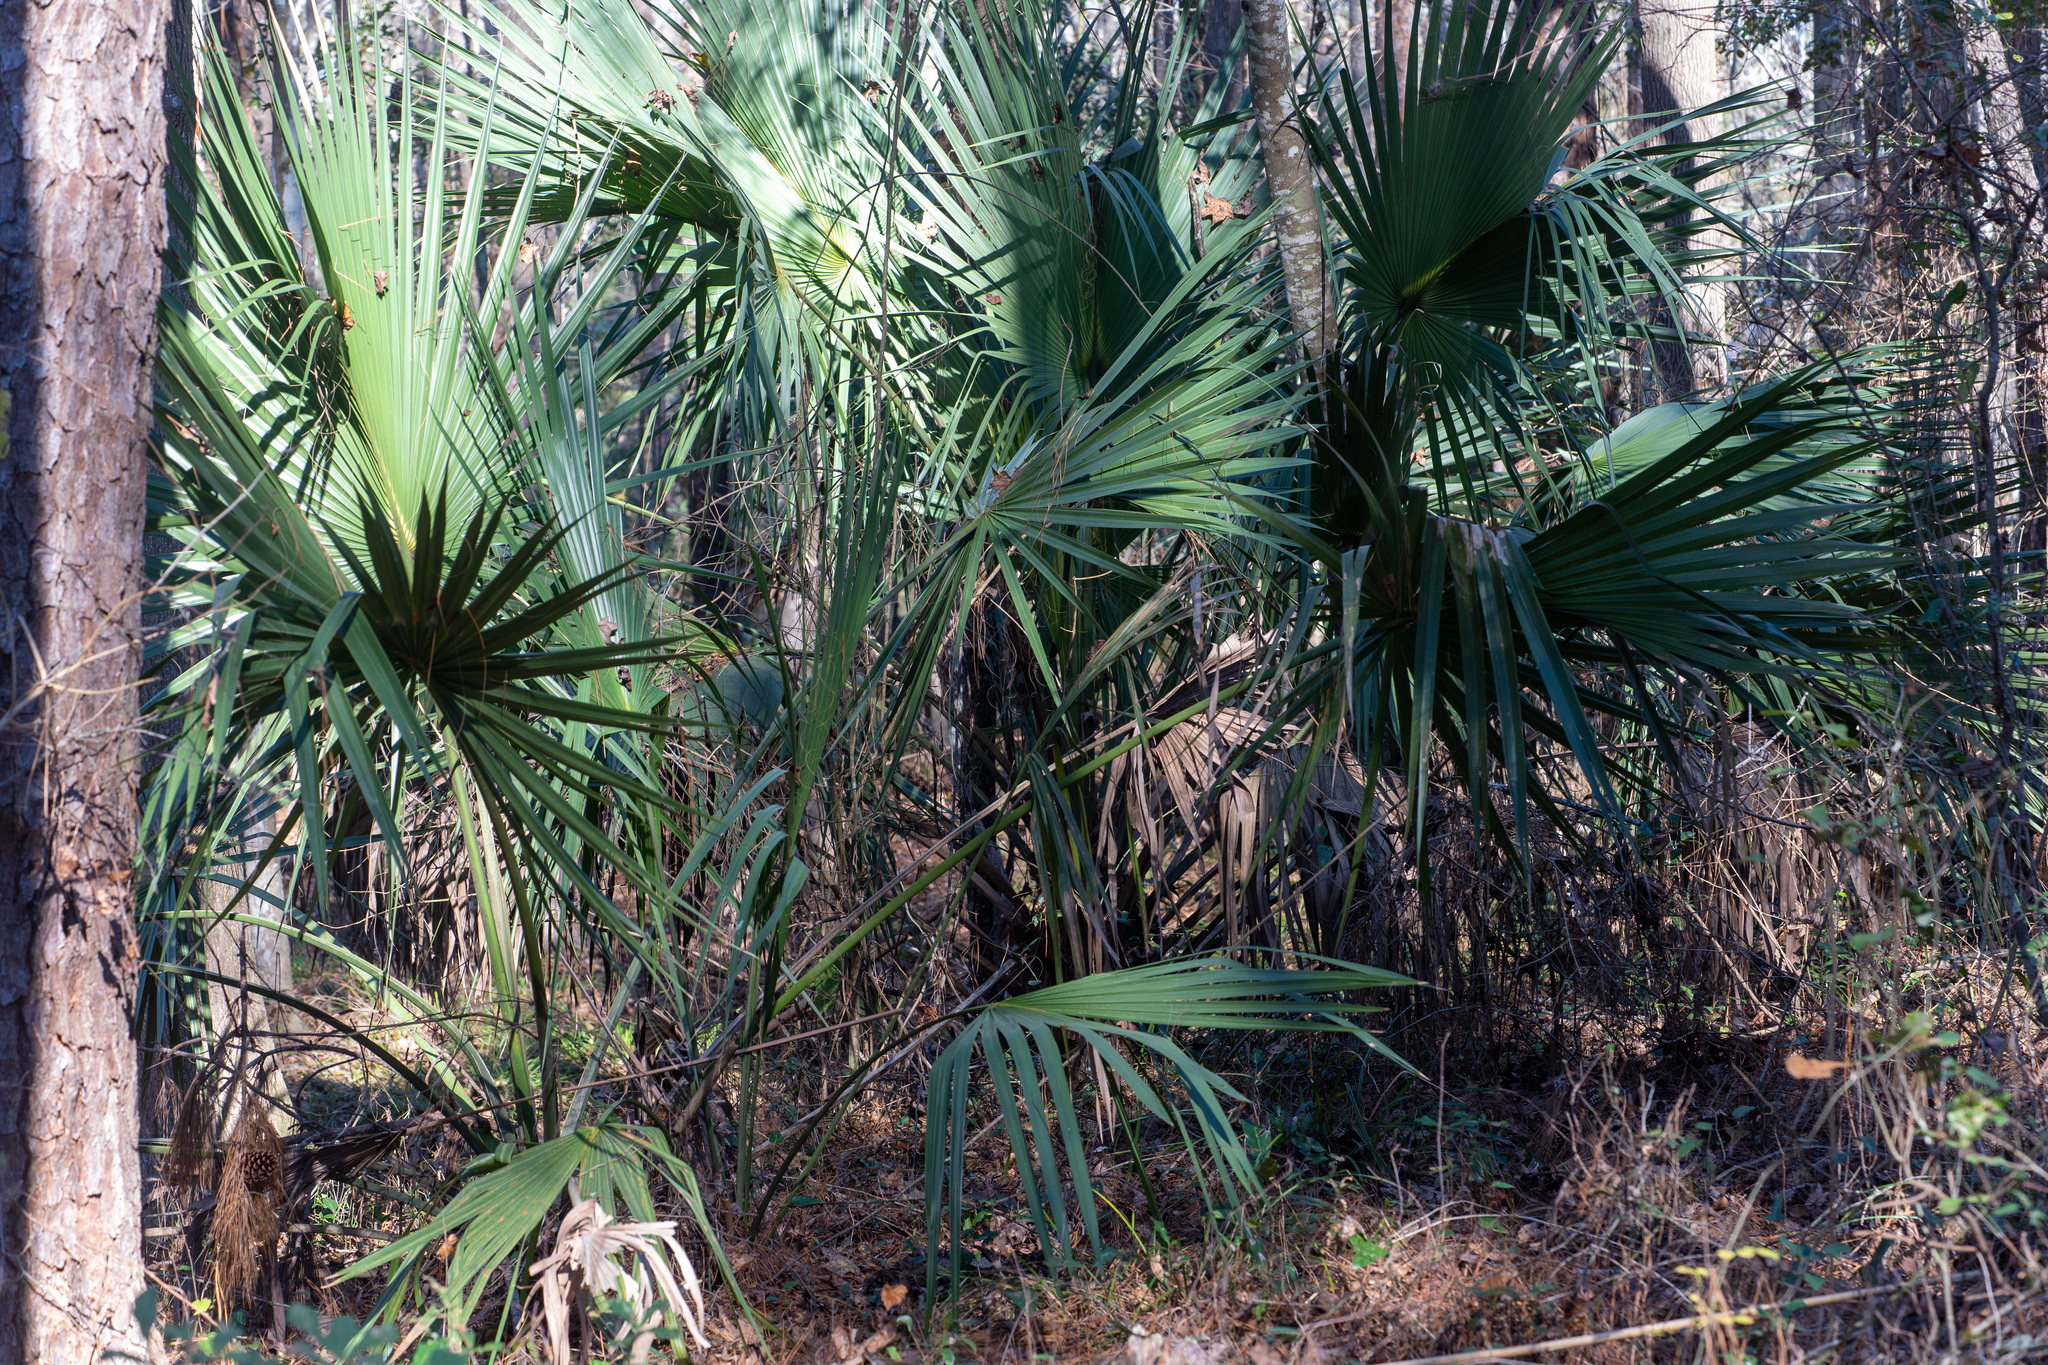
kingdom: Plantae
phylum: Tracheophyta
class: Liliopsida
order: Arecales
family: Arecaceae
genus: Sabal
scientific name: Sabal palmetto
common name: Blue palmetto
